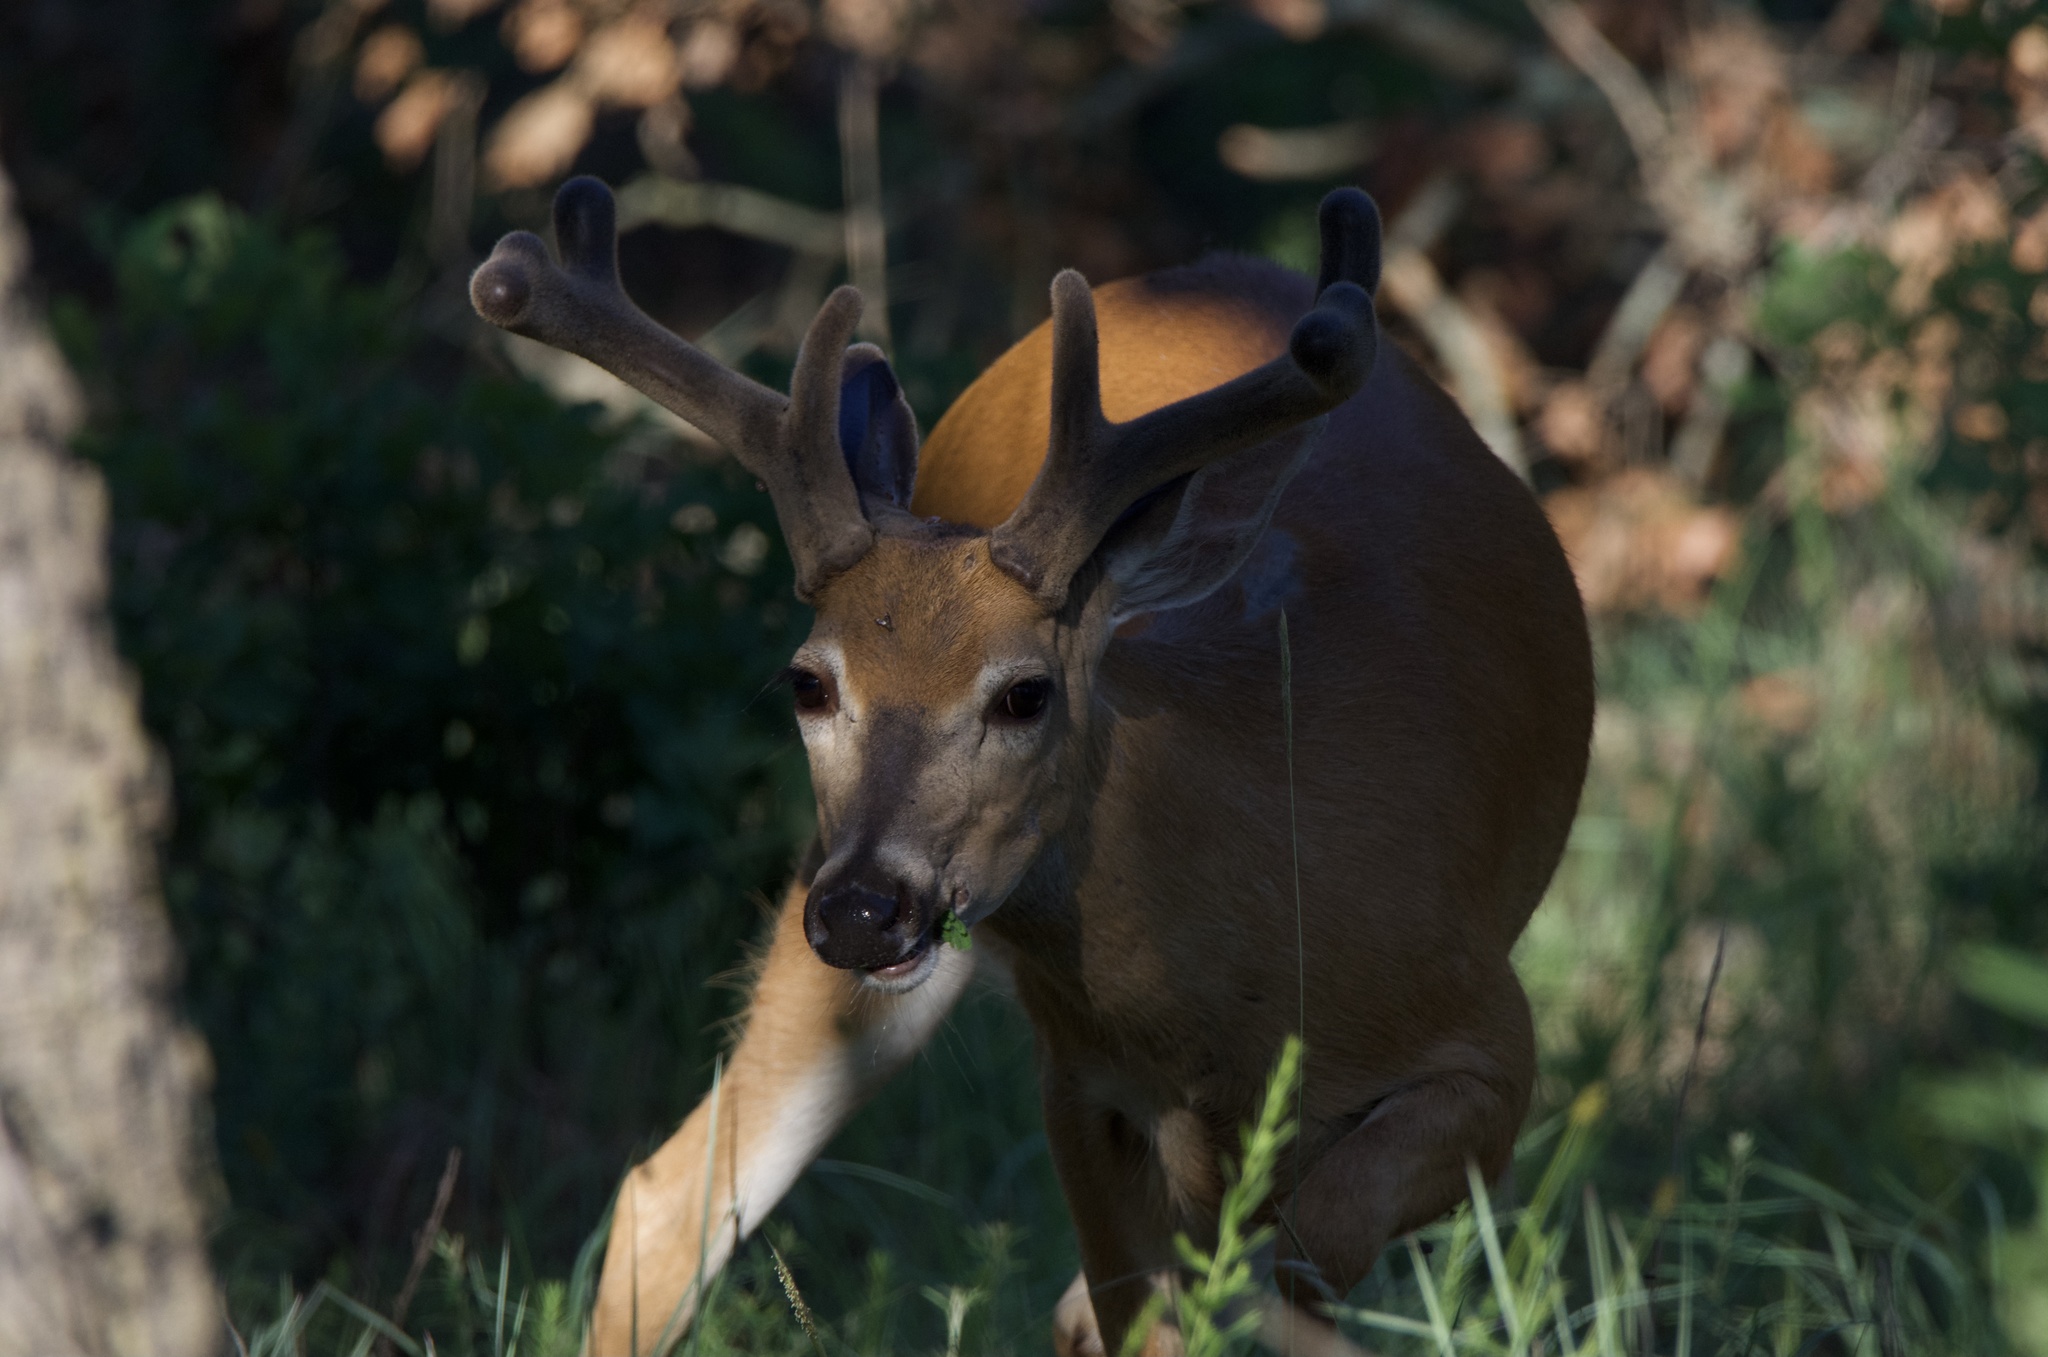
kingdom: Animalia
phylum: Chordata
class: Mammalia
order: Artiodactyla
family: Cervidae
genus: Odocoileus
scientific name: Odocoileus virginianus
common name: White-tailed deer
